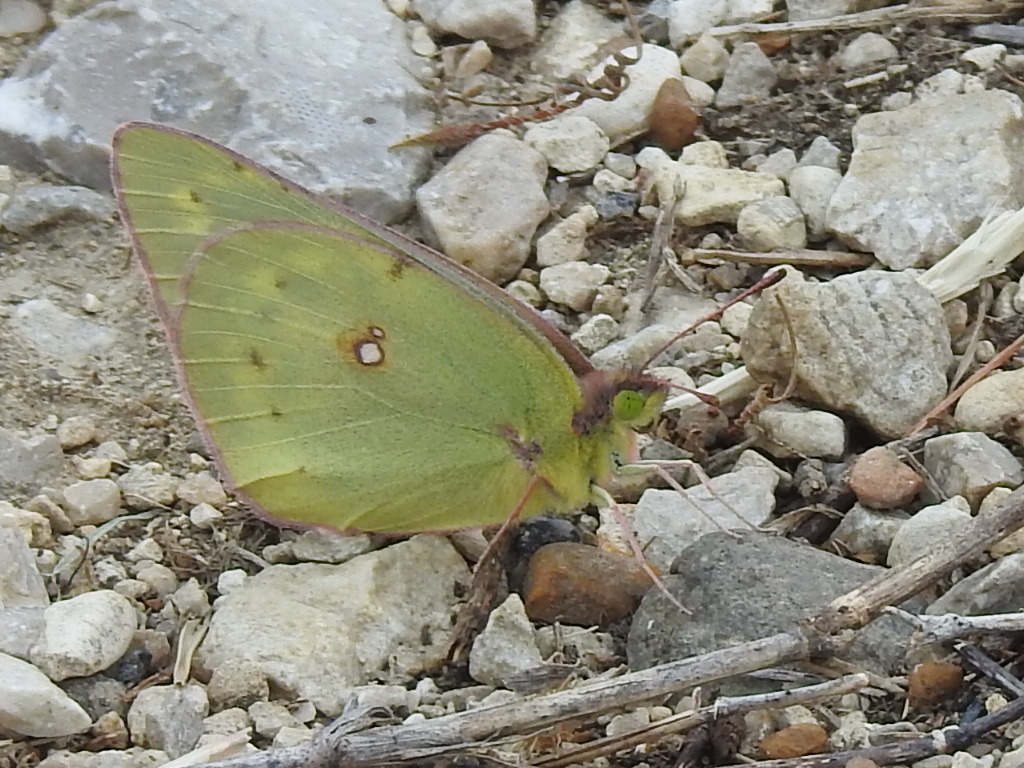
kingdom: Animalia
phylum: Arthropoda
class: Insecta
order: Lepidoptera
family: Pieridae
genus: Colias
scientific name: Colias eurytheme
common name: Alfalfa butterfly
